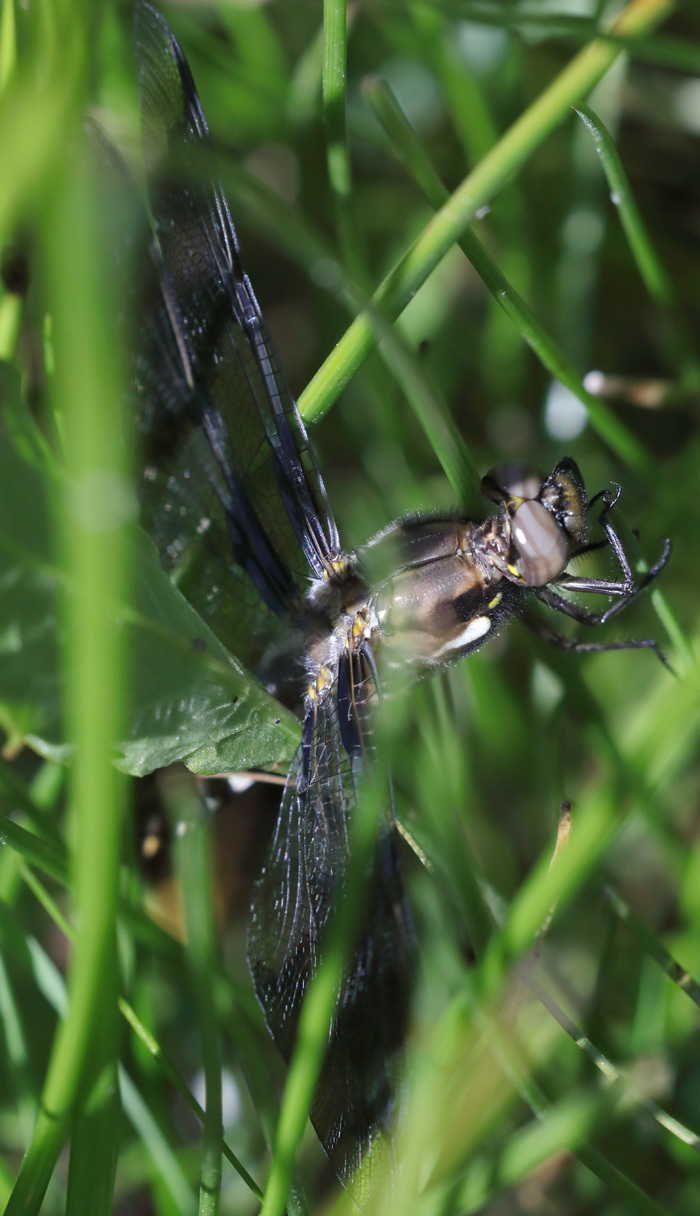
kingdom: Animalia
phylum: Arthropoda
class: Insecta
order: Odonata
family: Libellulidae
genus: Plathemis
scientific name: Plathemis lydia
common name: Common whitetail
